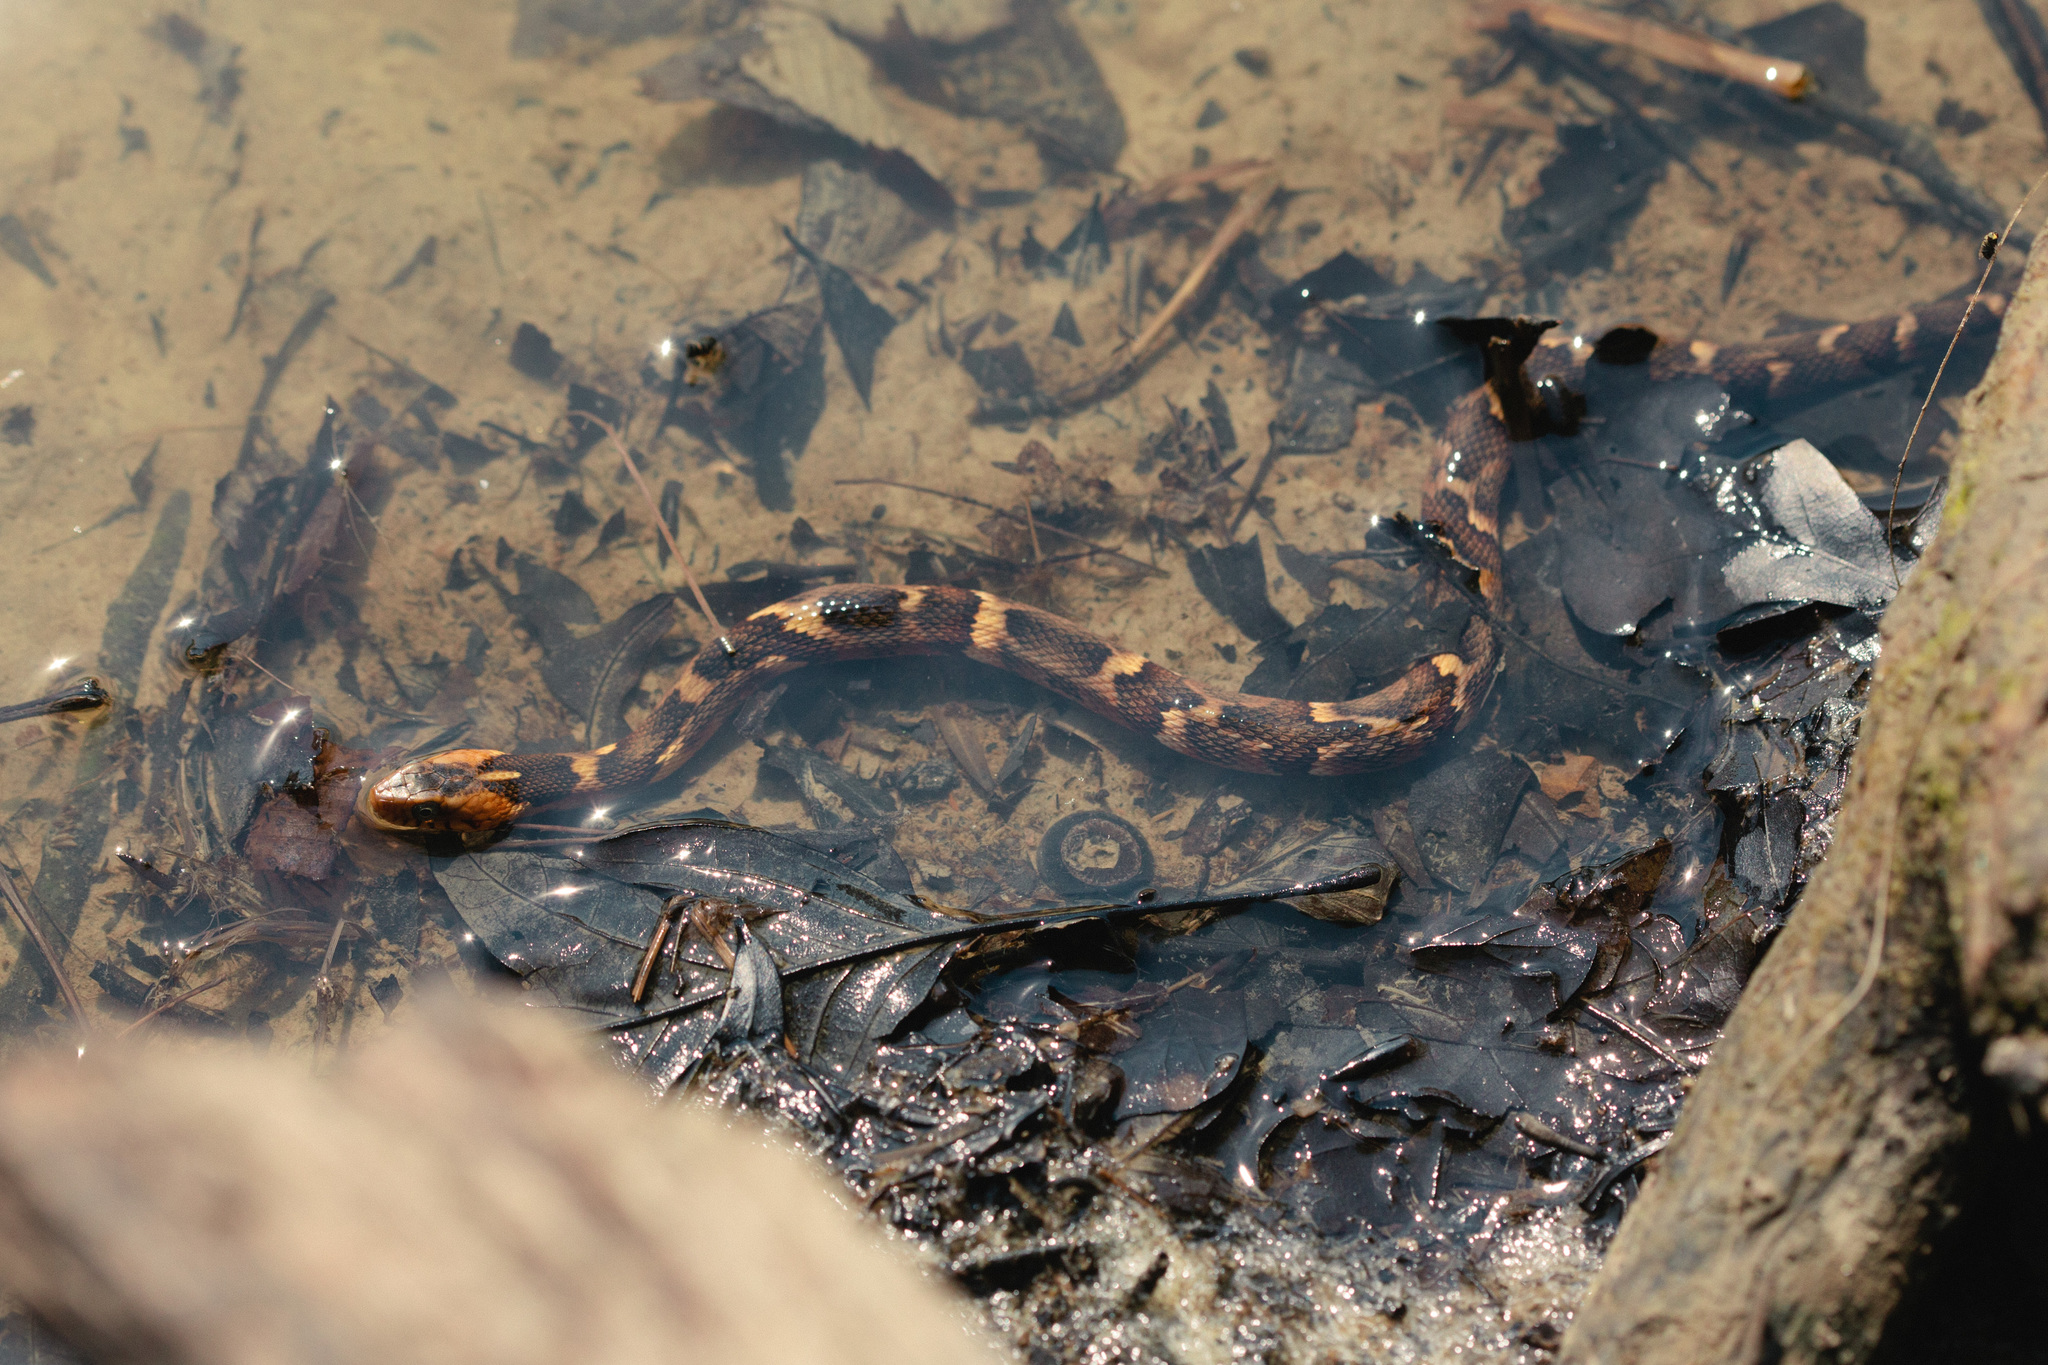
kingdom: Animalia
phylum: Chordata
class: Squamata
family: Colubridae
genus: Nerodia
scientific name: Nerodia fasciata
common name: Southern water snake
